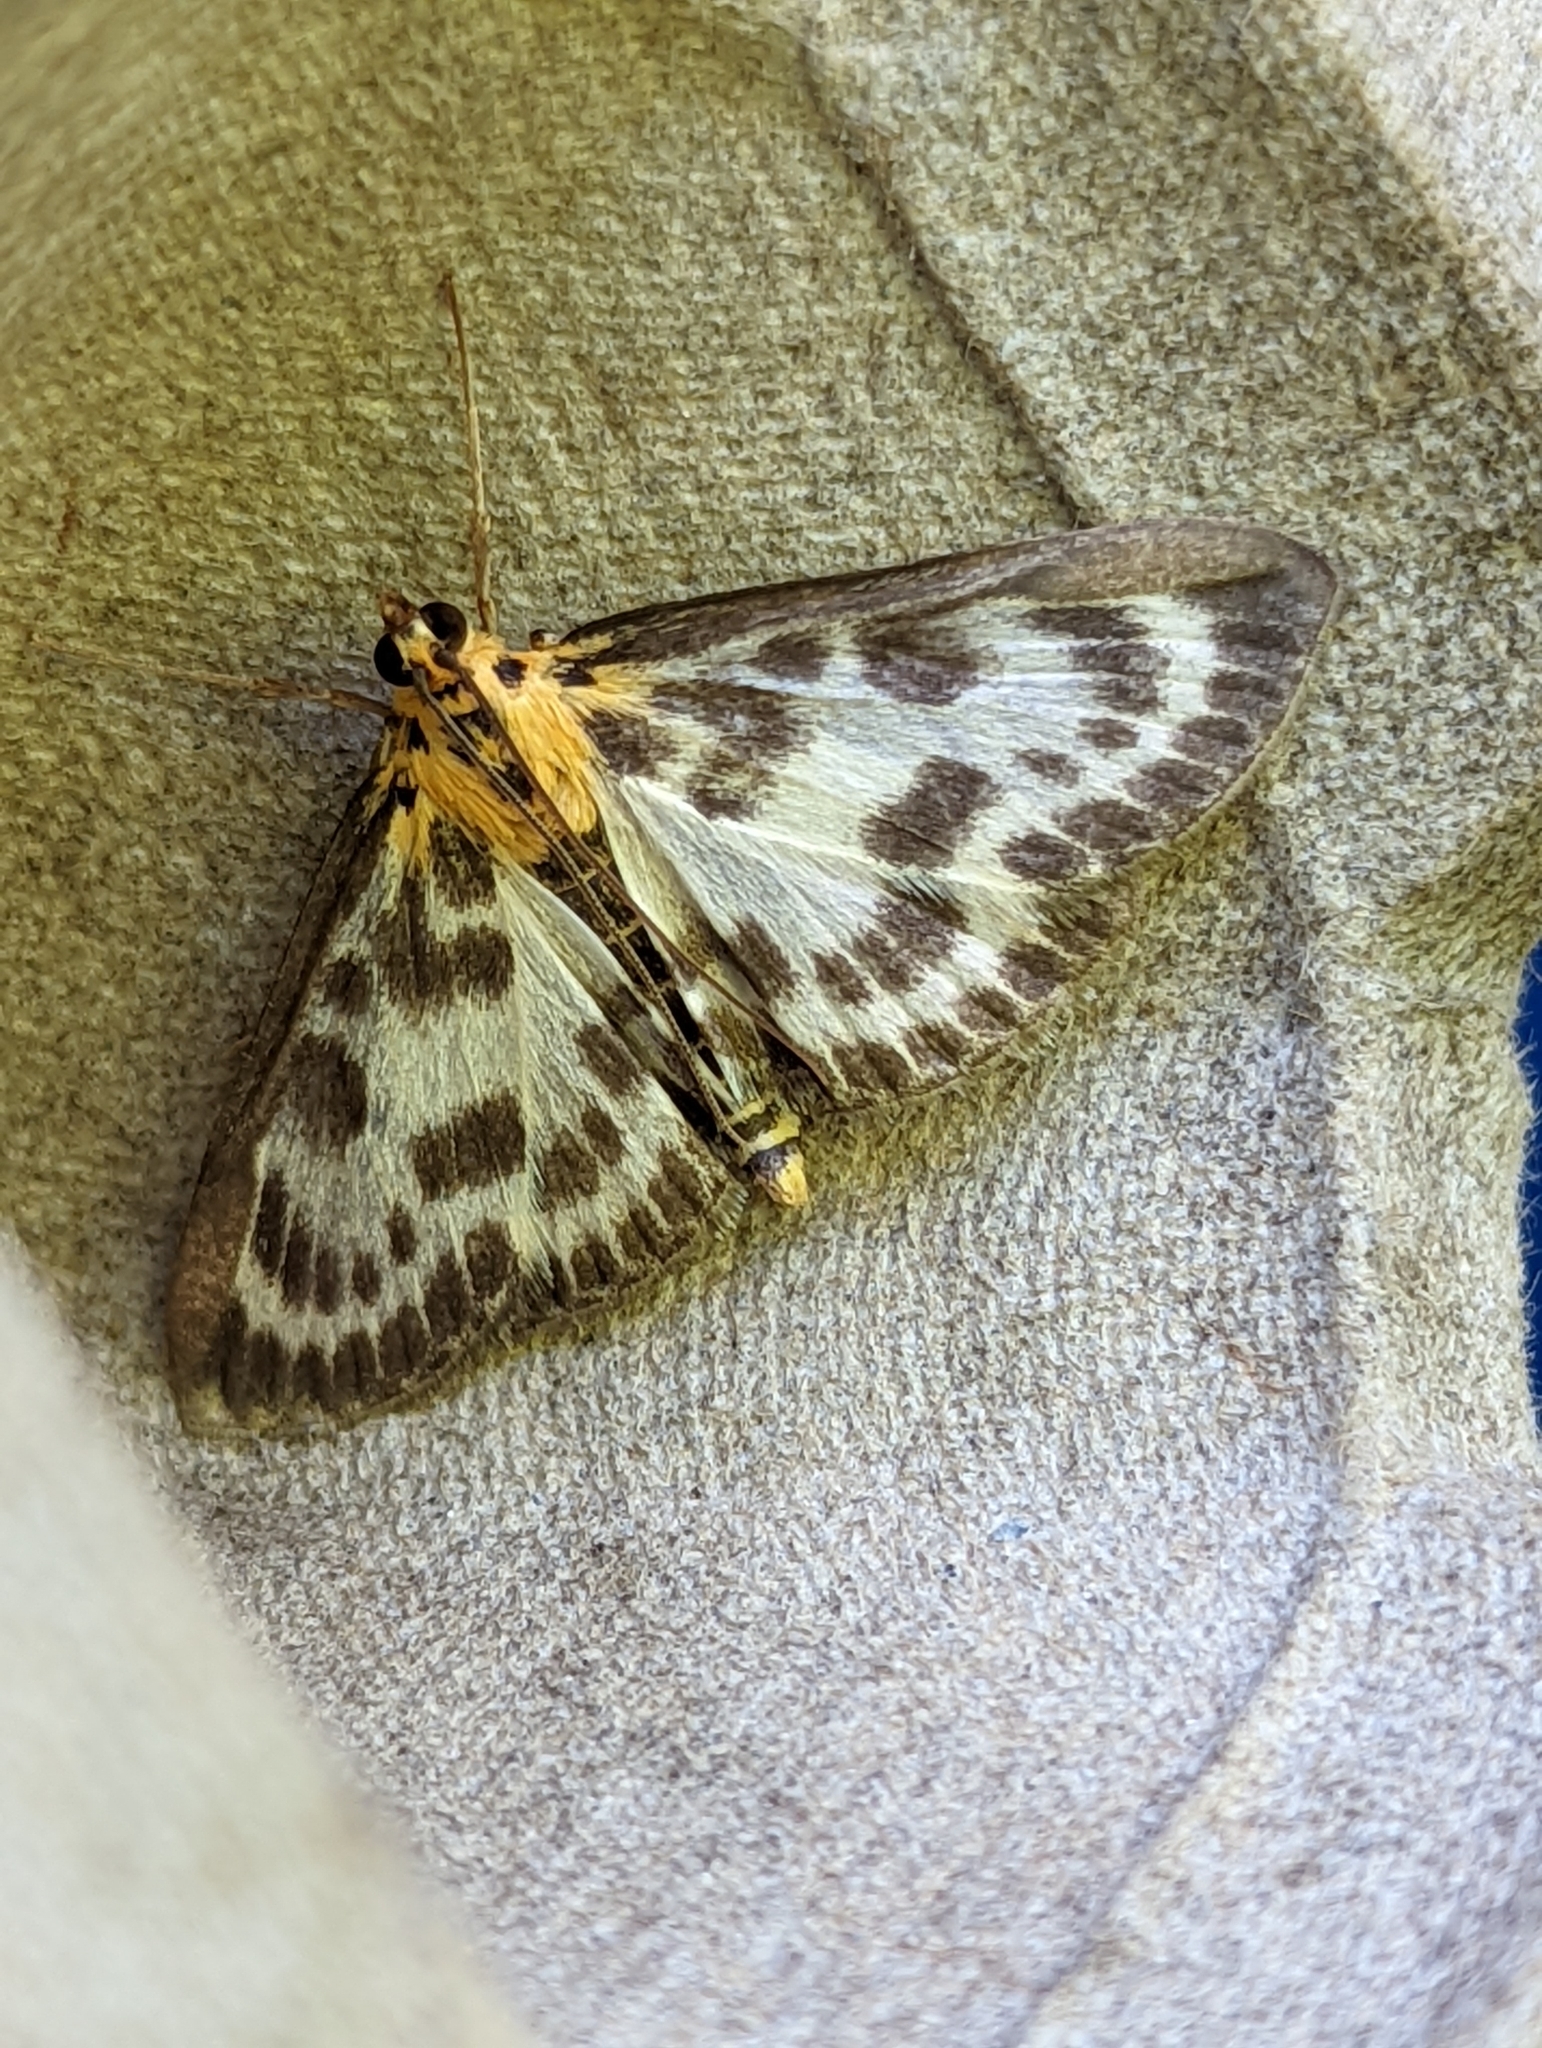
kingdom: Animalia
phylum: Arthropoda
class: Insecta
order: Lepidoptera
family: Crambidae
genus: Anania
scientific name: Anania hortulata
